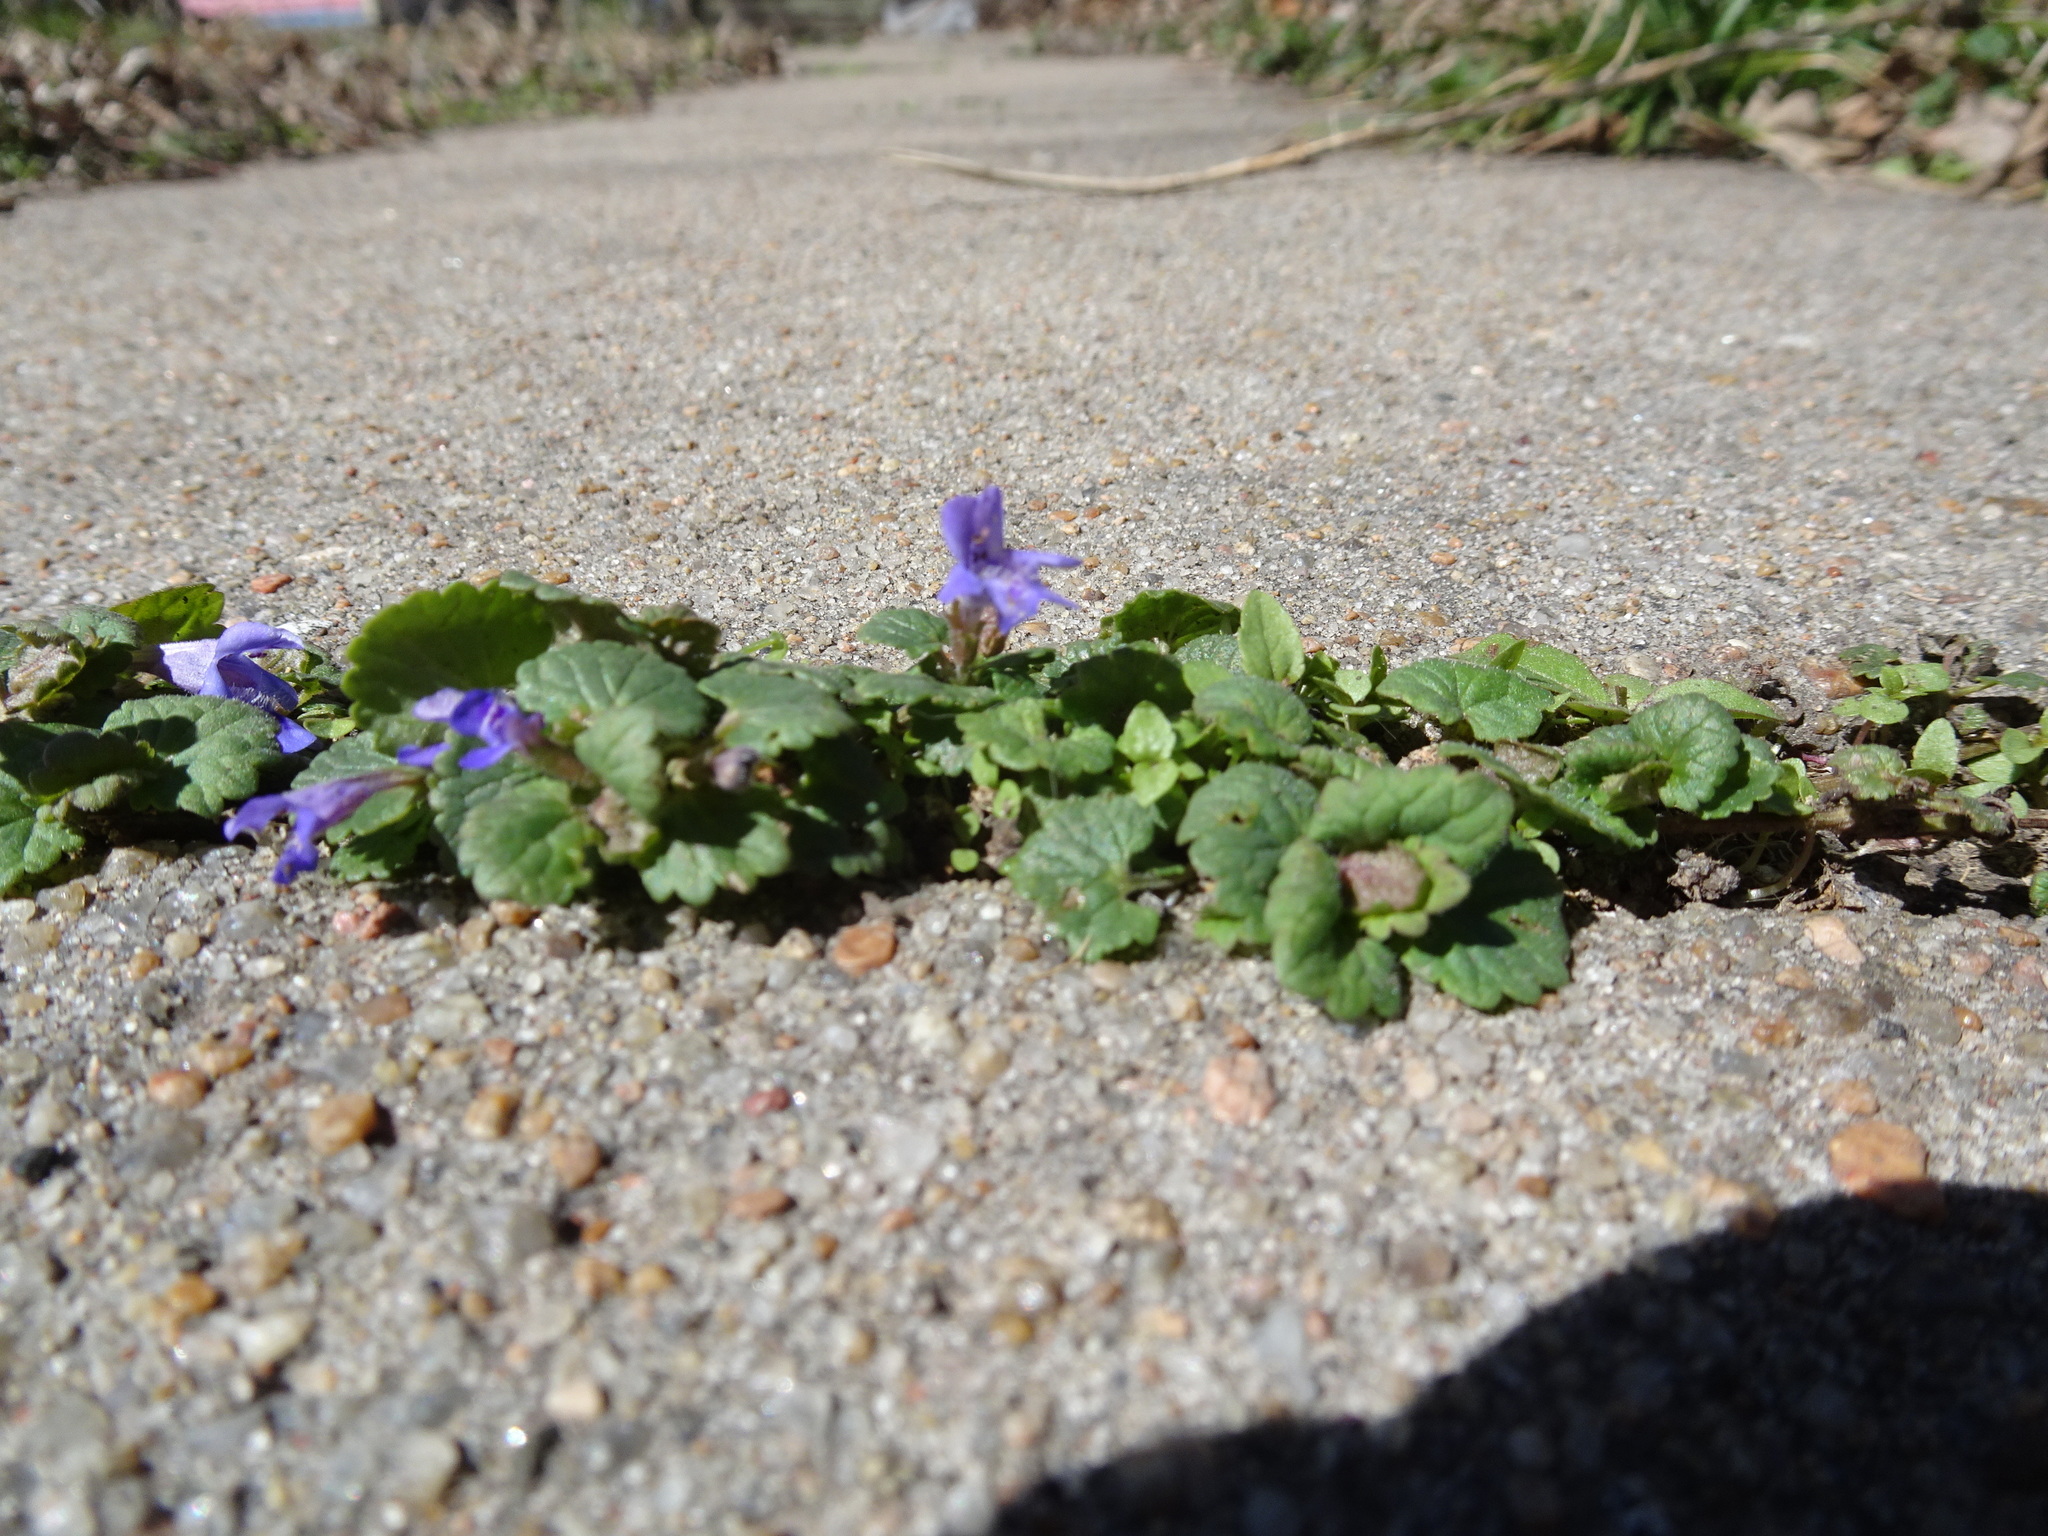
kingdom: Plantae
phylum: Tracheophyta
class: Magnoliopsida
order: Lamiales
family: Lamiaceae
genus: Glechoma
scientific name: Glechoma hederacea
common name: Ground ivy
